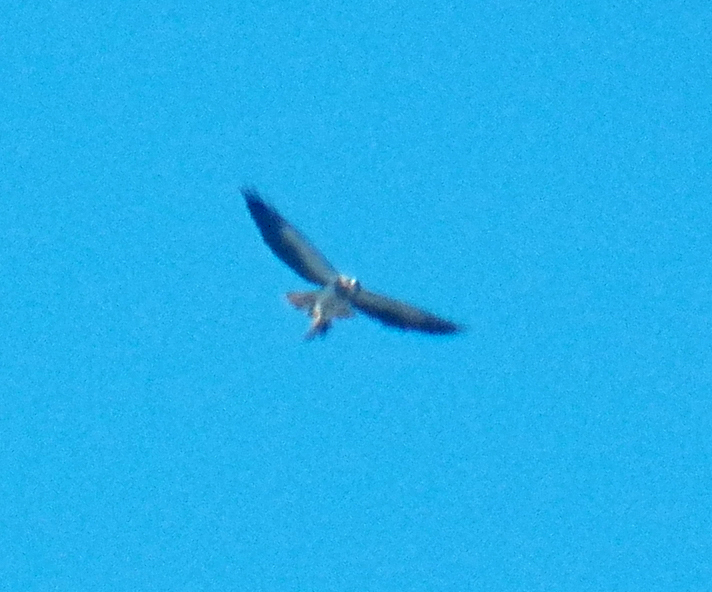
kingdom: Animalia
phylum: Chordata
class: Aves
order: Accipitriformes
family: Accipitridae
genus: Buteo
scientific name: Buteo swainsoni
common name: Swainson's hawk
